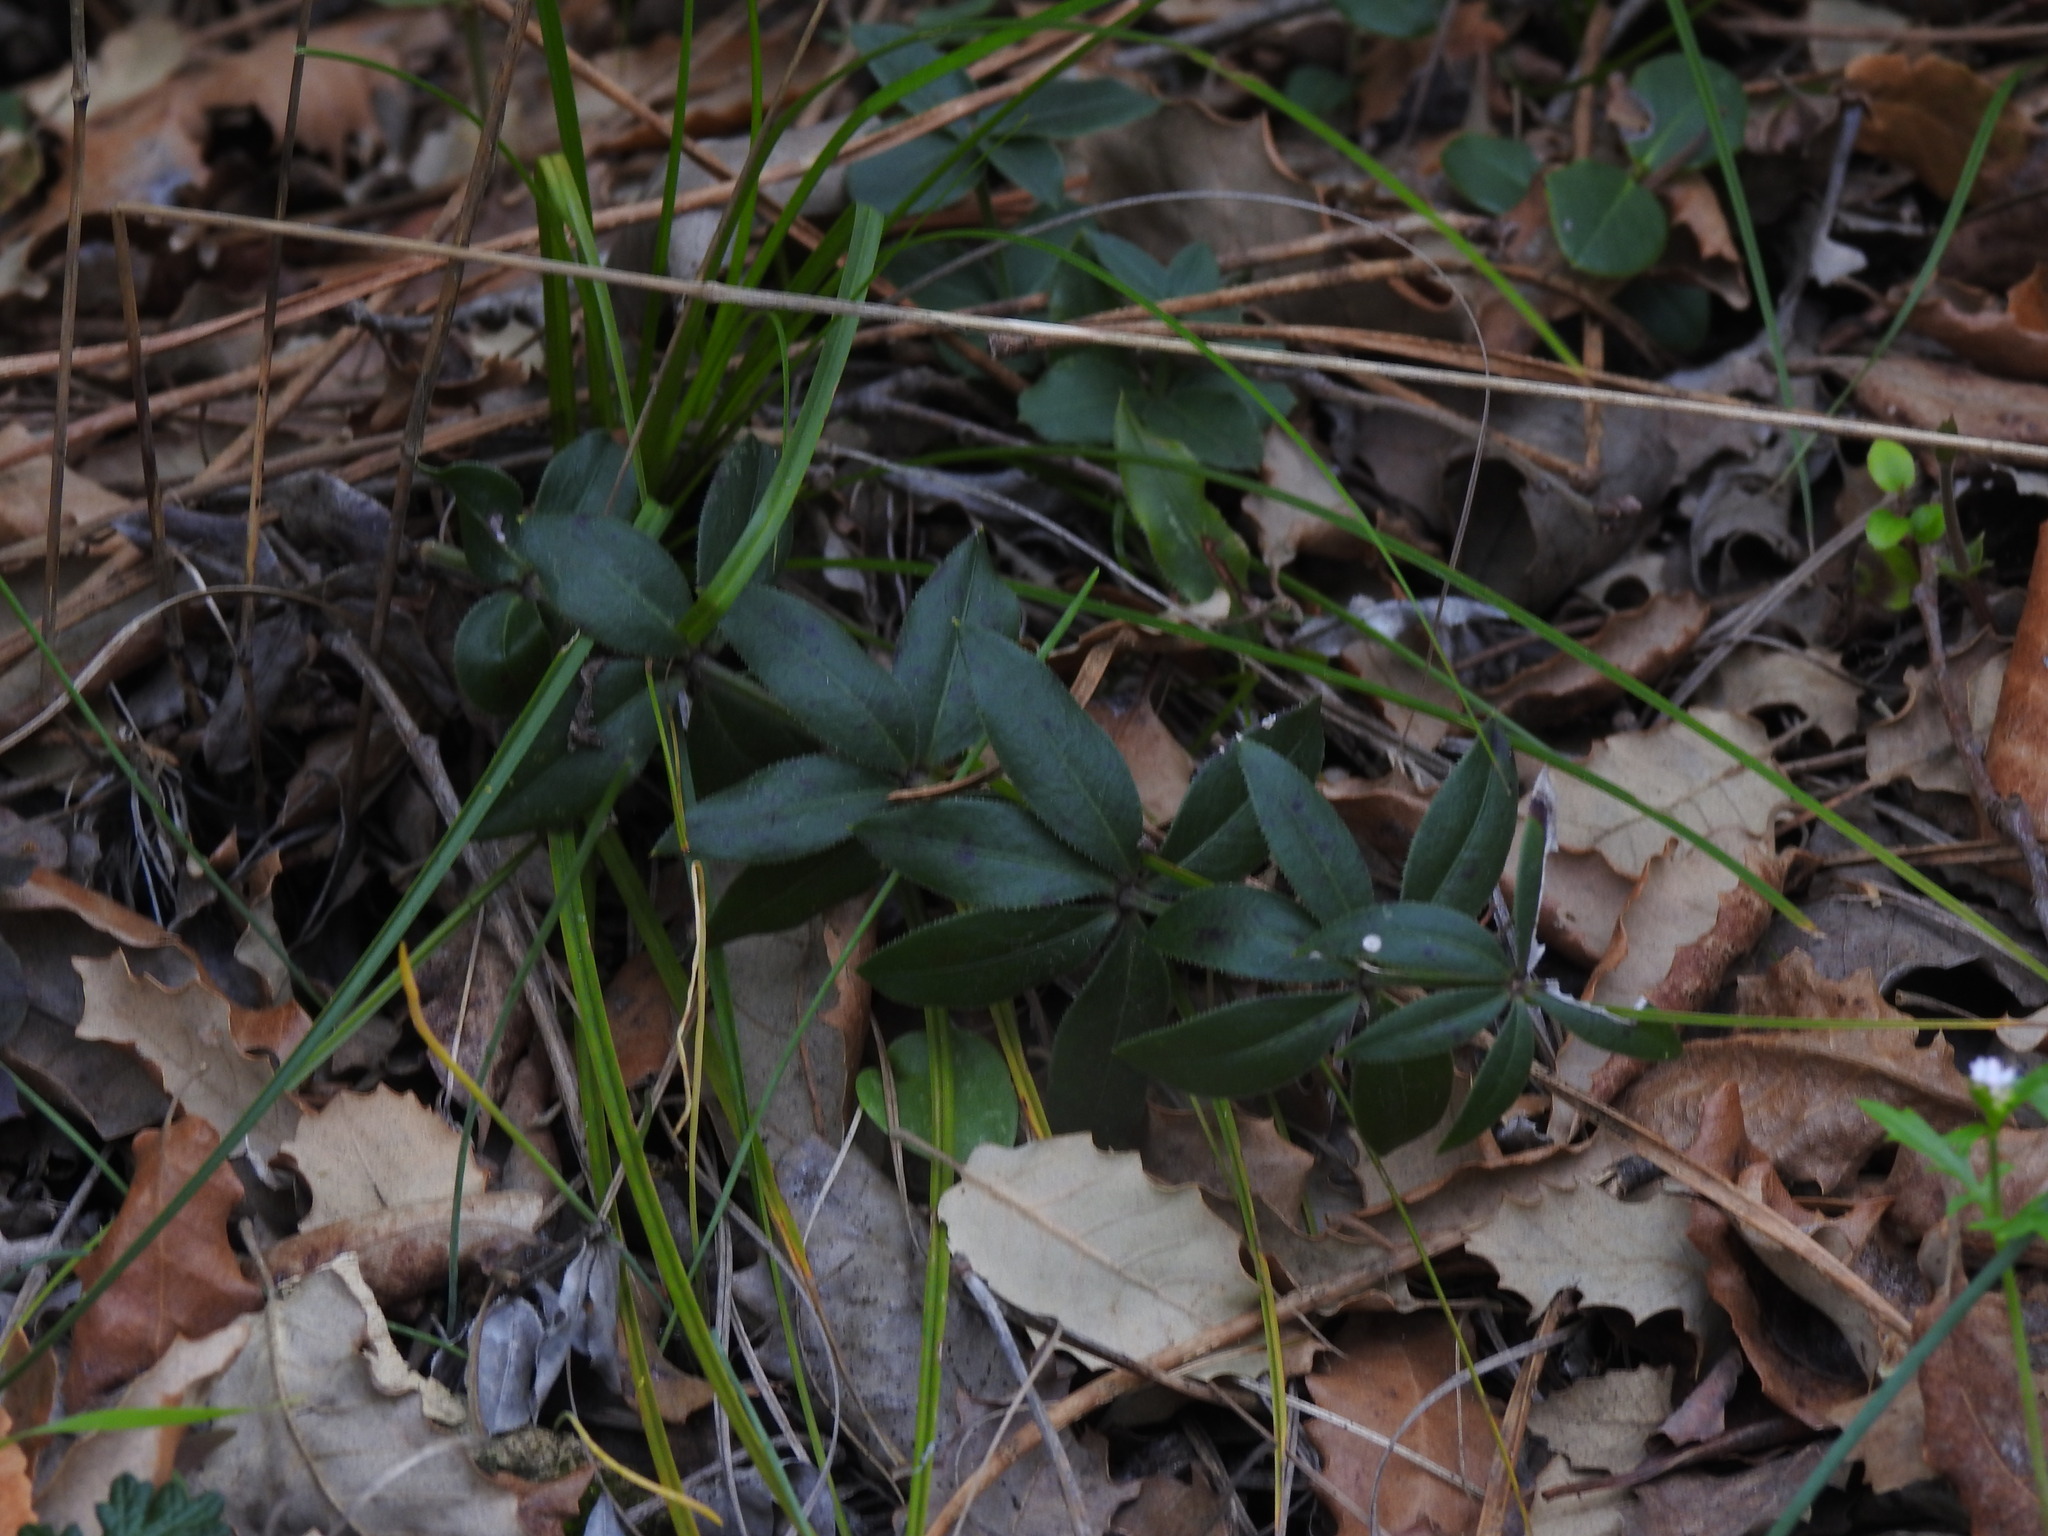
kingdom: Plantae
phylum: Tracheophyta
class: Magnoliopsida
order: Gentianales
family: Rubiaceae
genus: Rubia
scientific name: Rubia peregrina
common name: Wild madder
